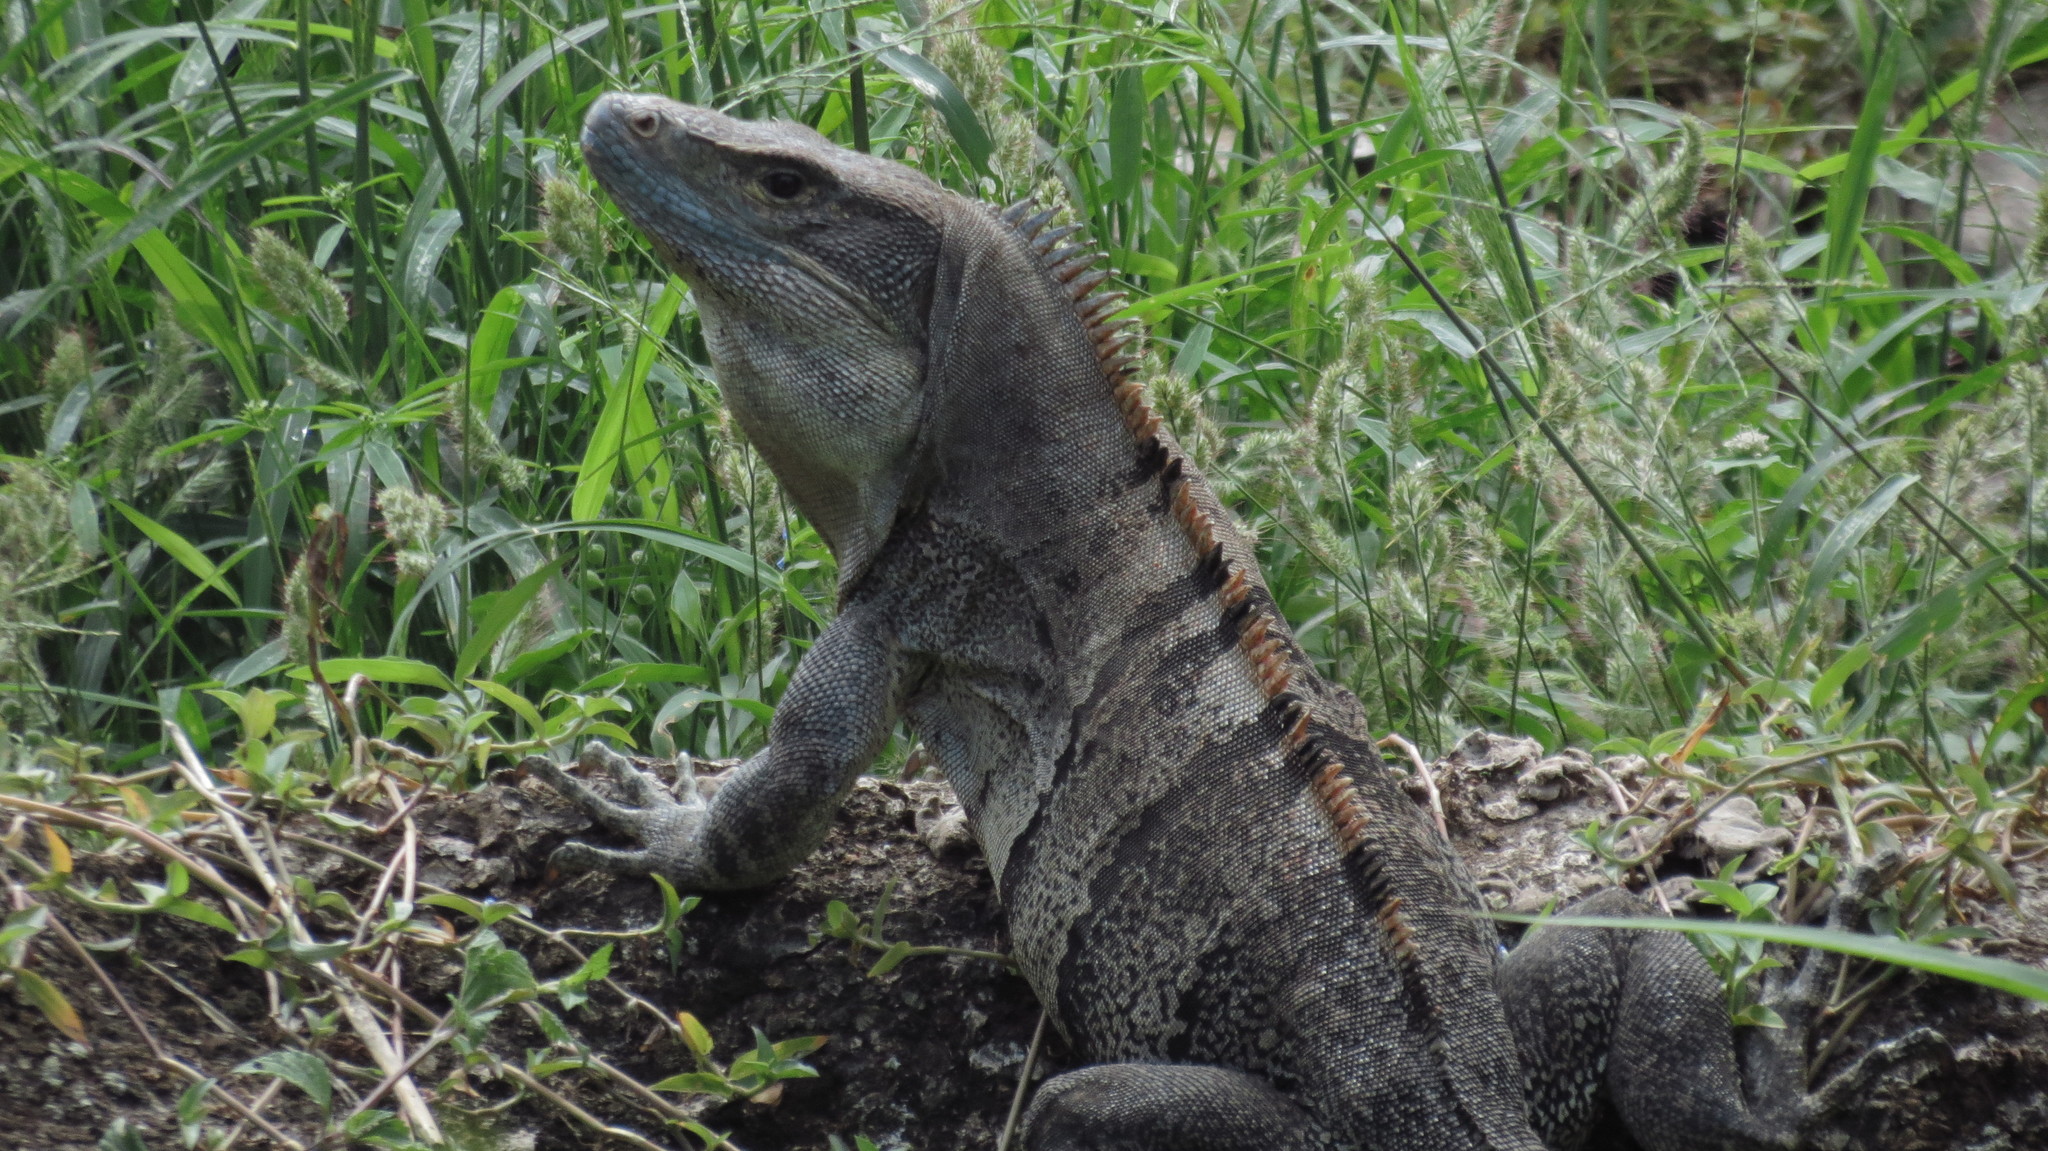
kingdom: Animalia
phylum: Chordata
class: Squamata
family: Iguanidae
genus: Ctenosaura
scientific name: Ctenosaura similis
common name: Black spiny-tailed iguana
